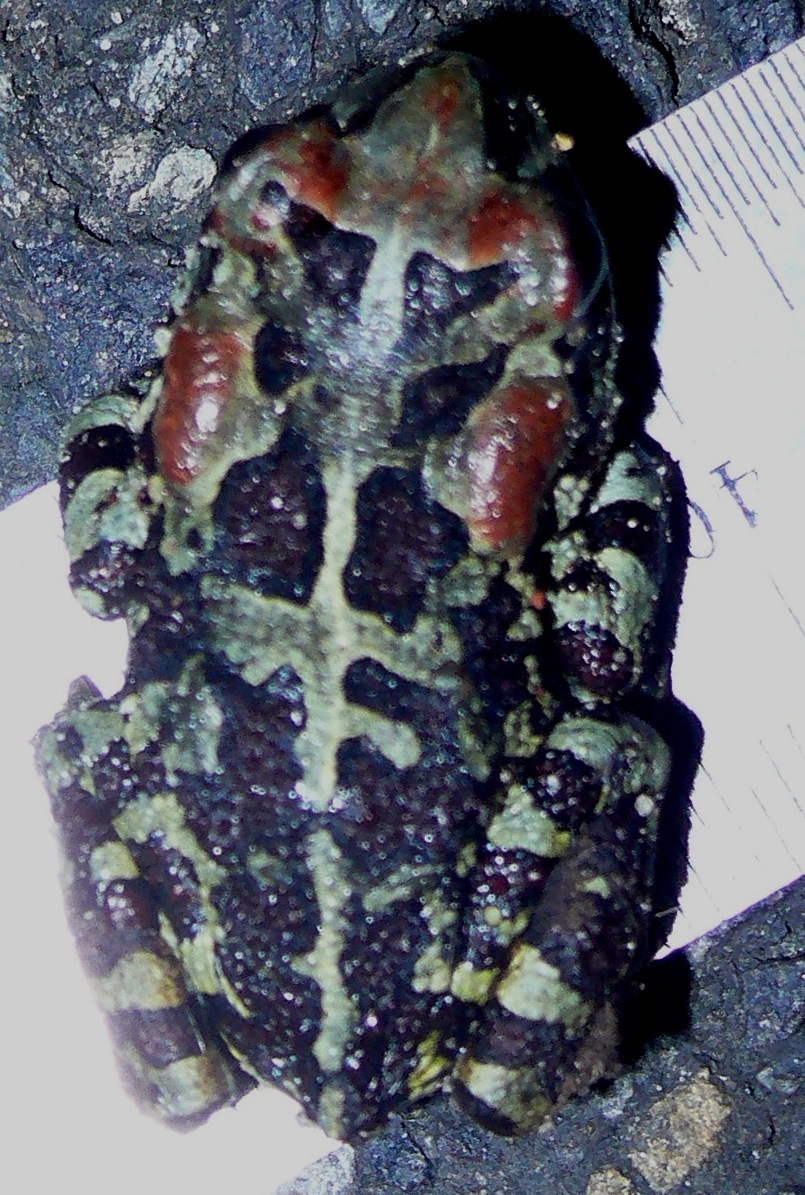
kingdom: Animalia
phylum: Chordata
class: Amphibia
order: Anura
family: Bufonidae
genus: Sclerophrys
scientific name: Sclerophrys pantherina
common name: Panther toad
